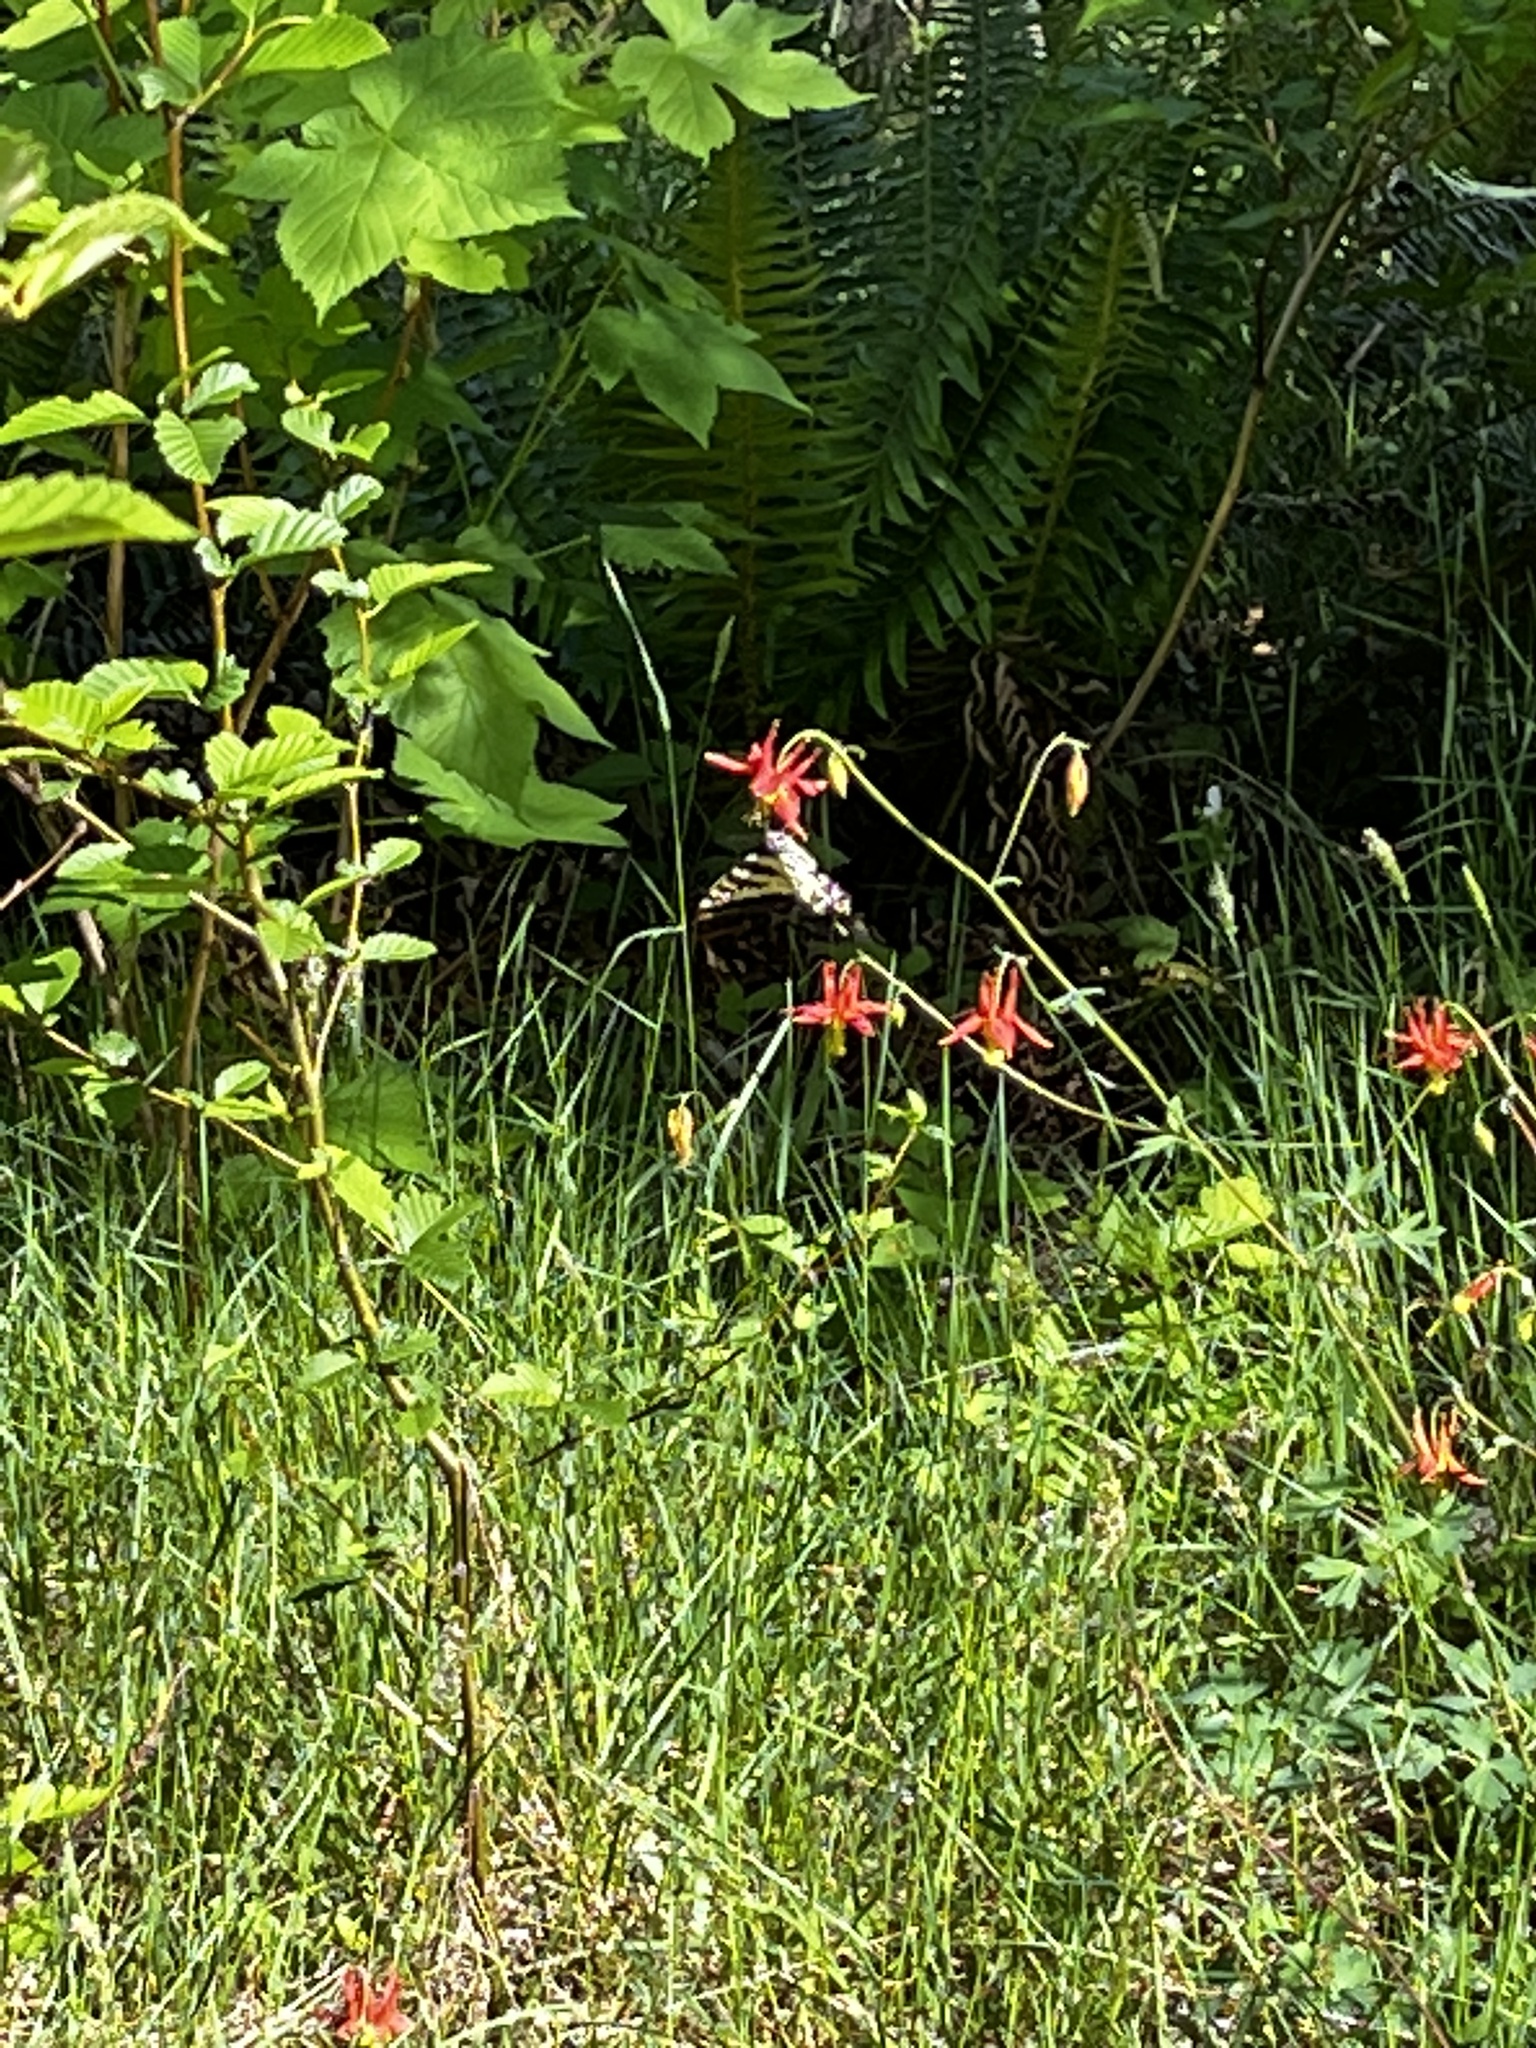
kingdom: Plantae
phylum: Tracheophyta
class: Magnoliopsida
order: Ranunculales
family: Ranunculaceae
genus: Aquilegia
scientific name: Aquilegia formosa
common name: Sitka columbine
